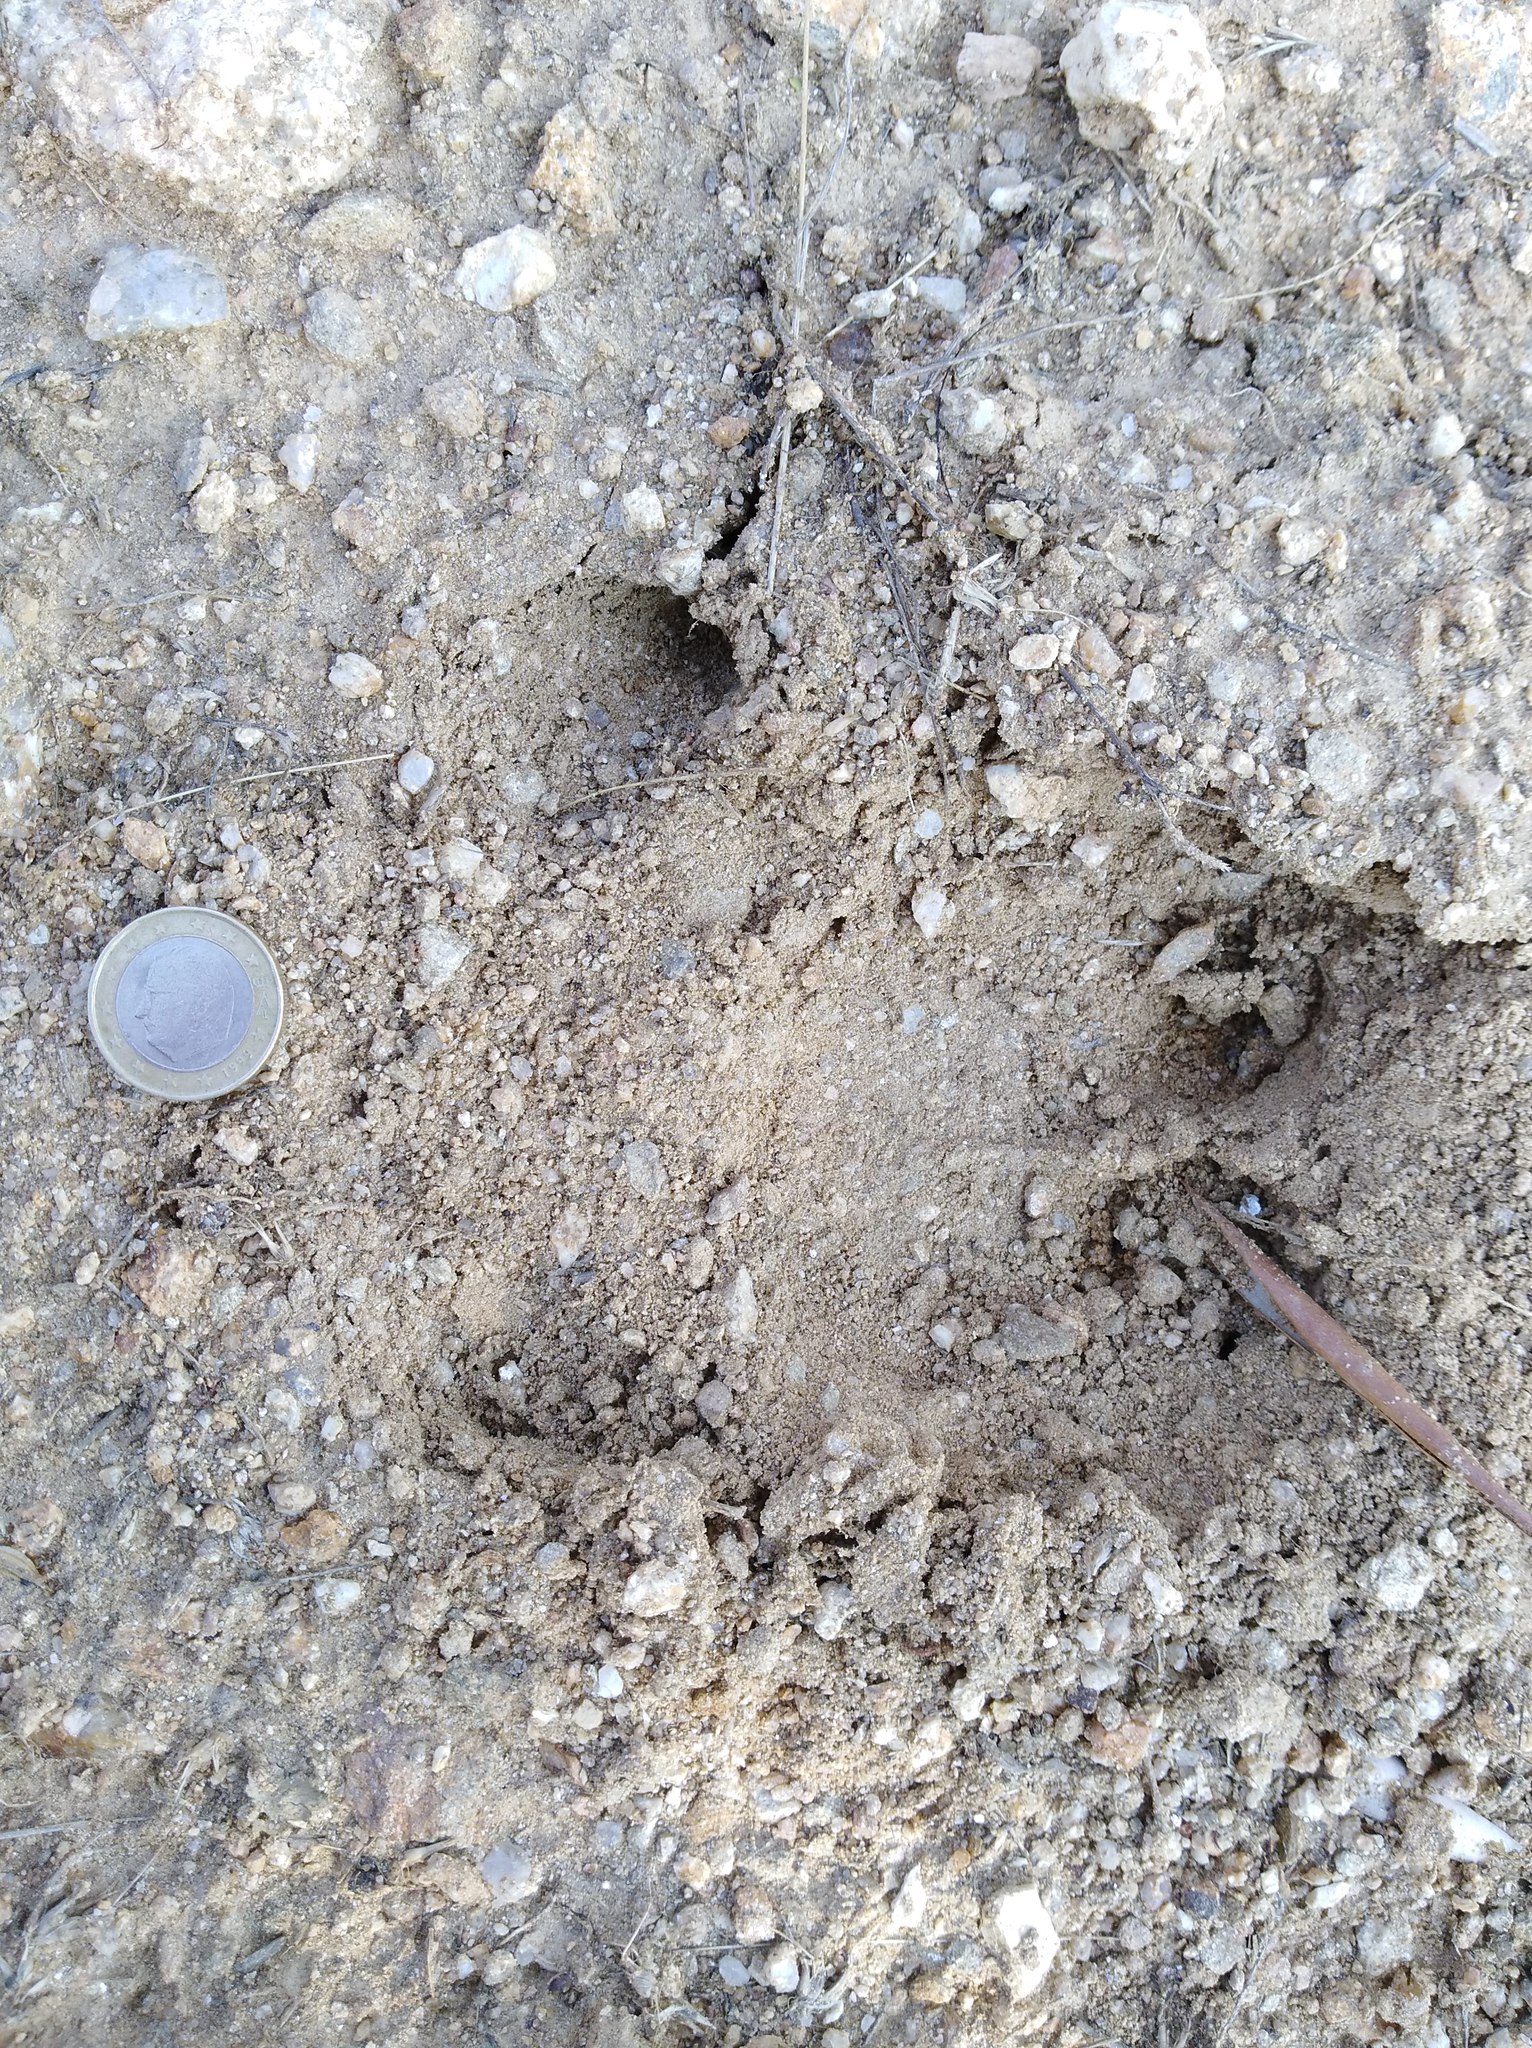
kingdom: Animalia
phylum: Chordata
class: Mammalia
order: Artiodactyla
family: Suidae
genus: Sus
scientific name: Sus scrofa
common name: Wild boar
